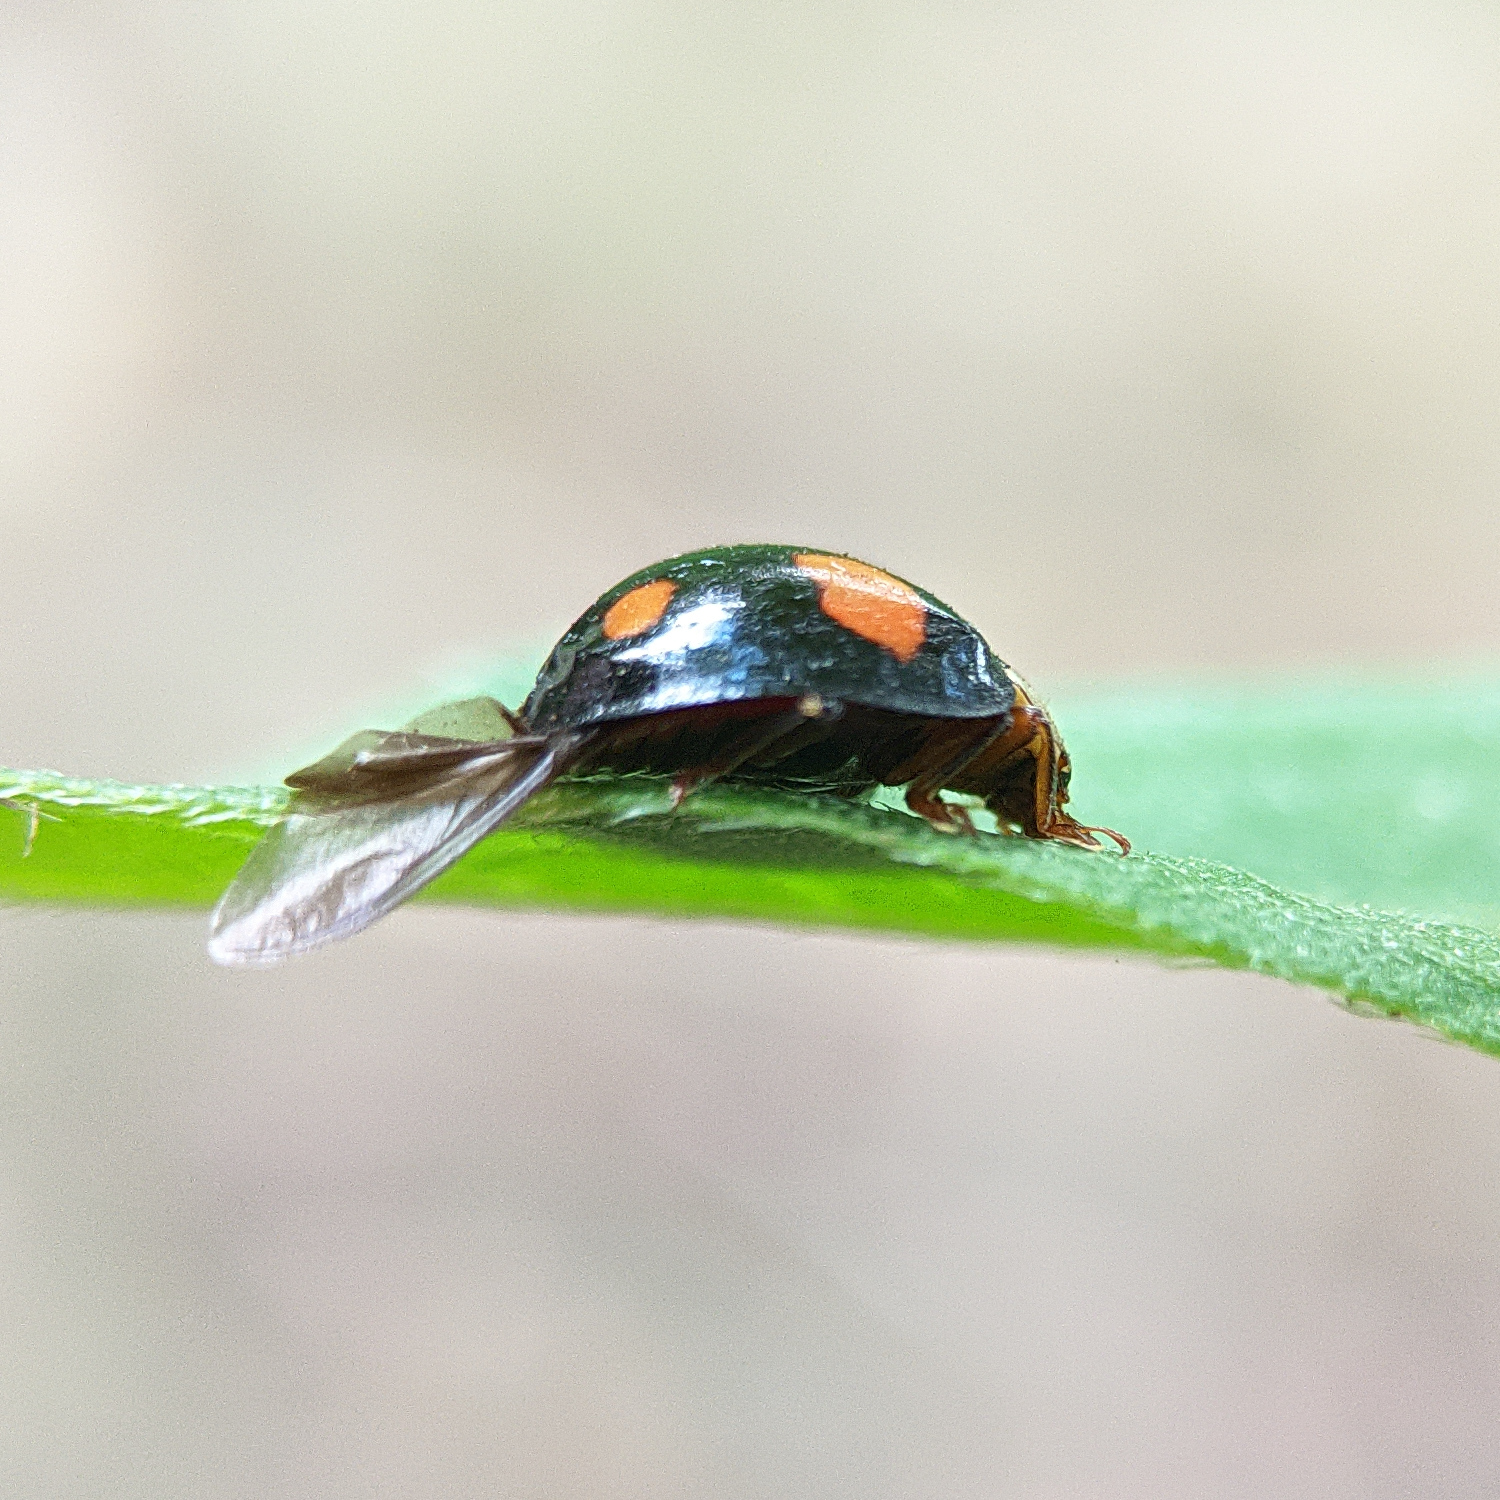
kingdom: Animalia
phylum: Arthropoda
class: Insecta
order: Coleoptera
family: Coccinellidae
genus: Harmonia
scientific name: Harmonia axyridis
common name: Harlequin ladybird
